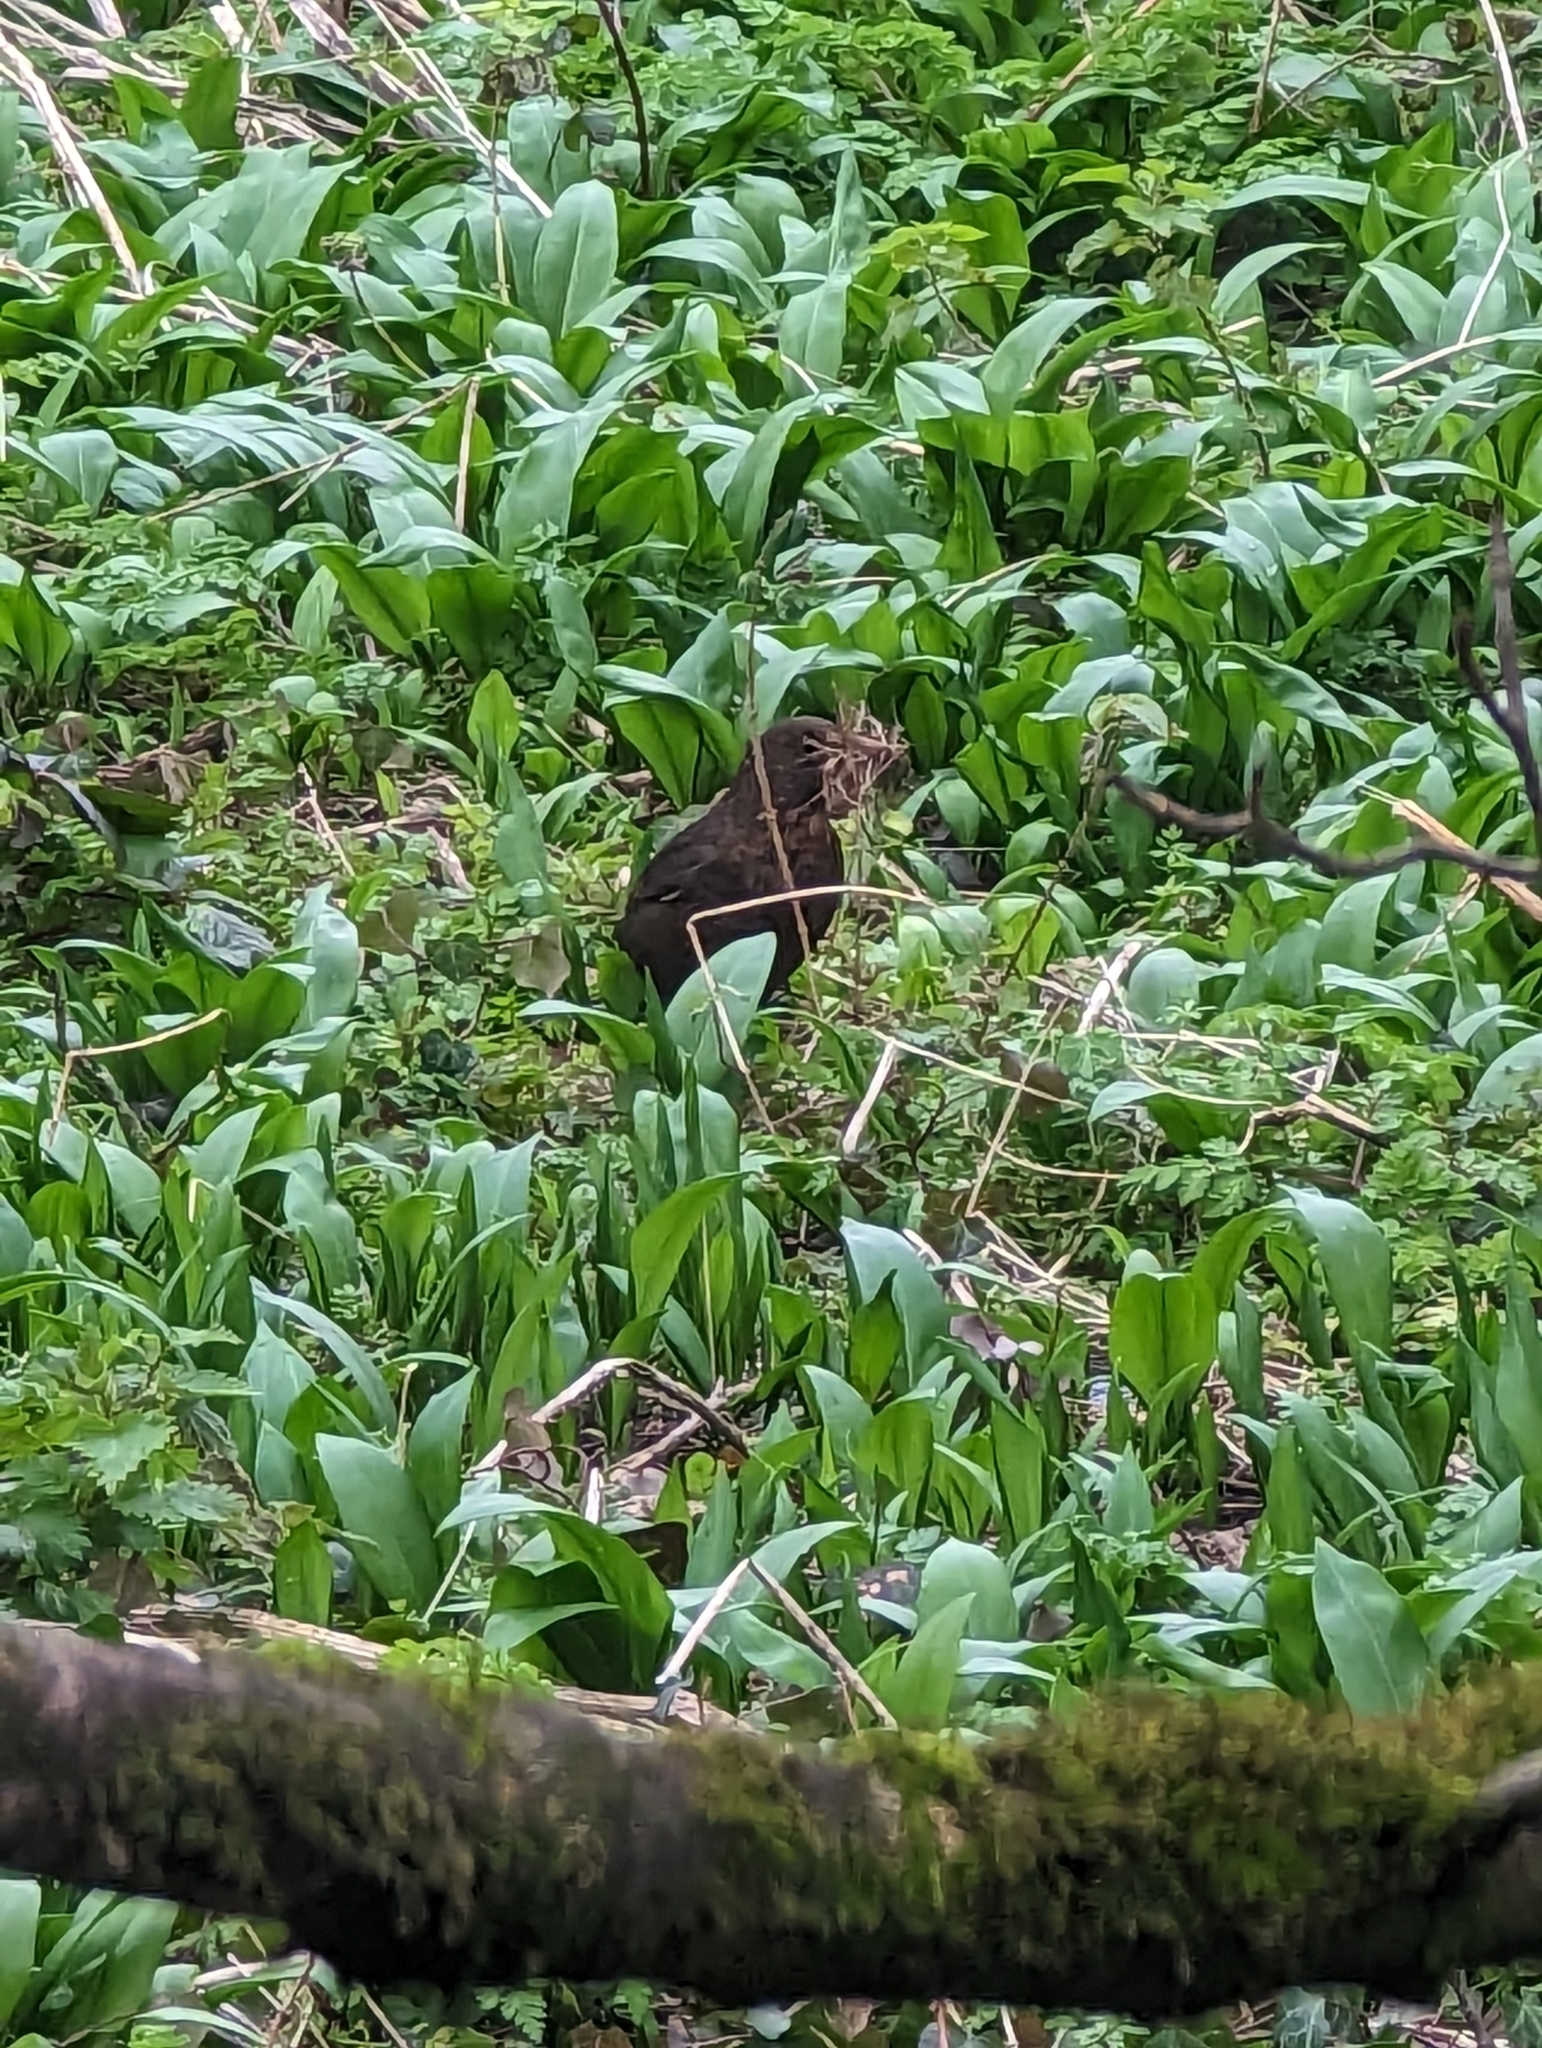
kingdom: Animalia
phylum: Chordata
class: Aves
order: Passeriformes
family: Turdidae
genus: Turdus
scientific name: Turdus merula
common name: Common blackbird
